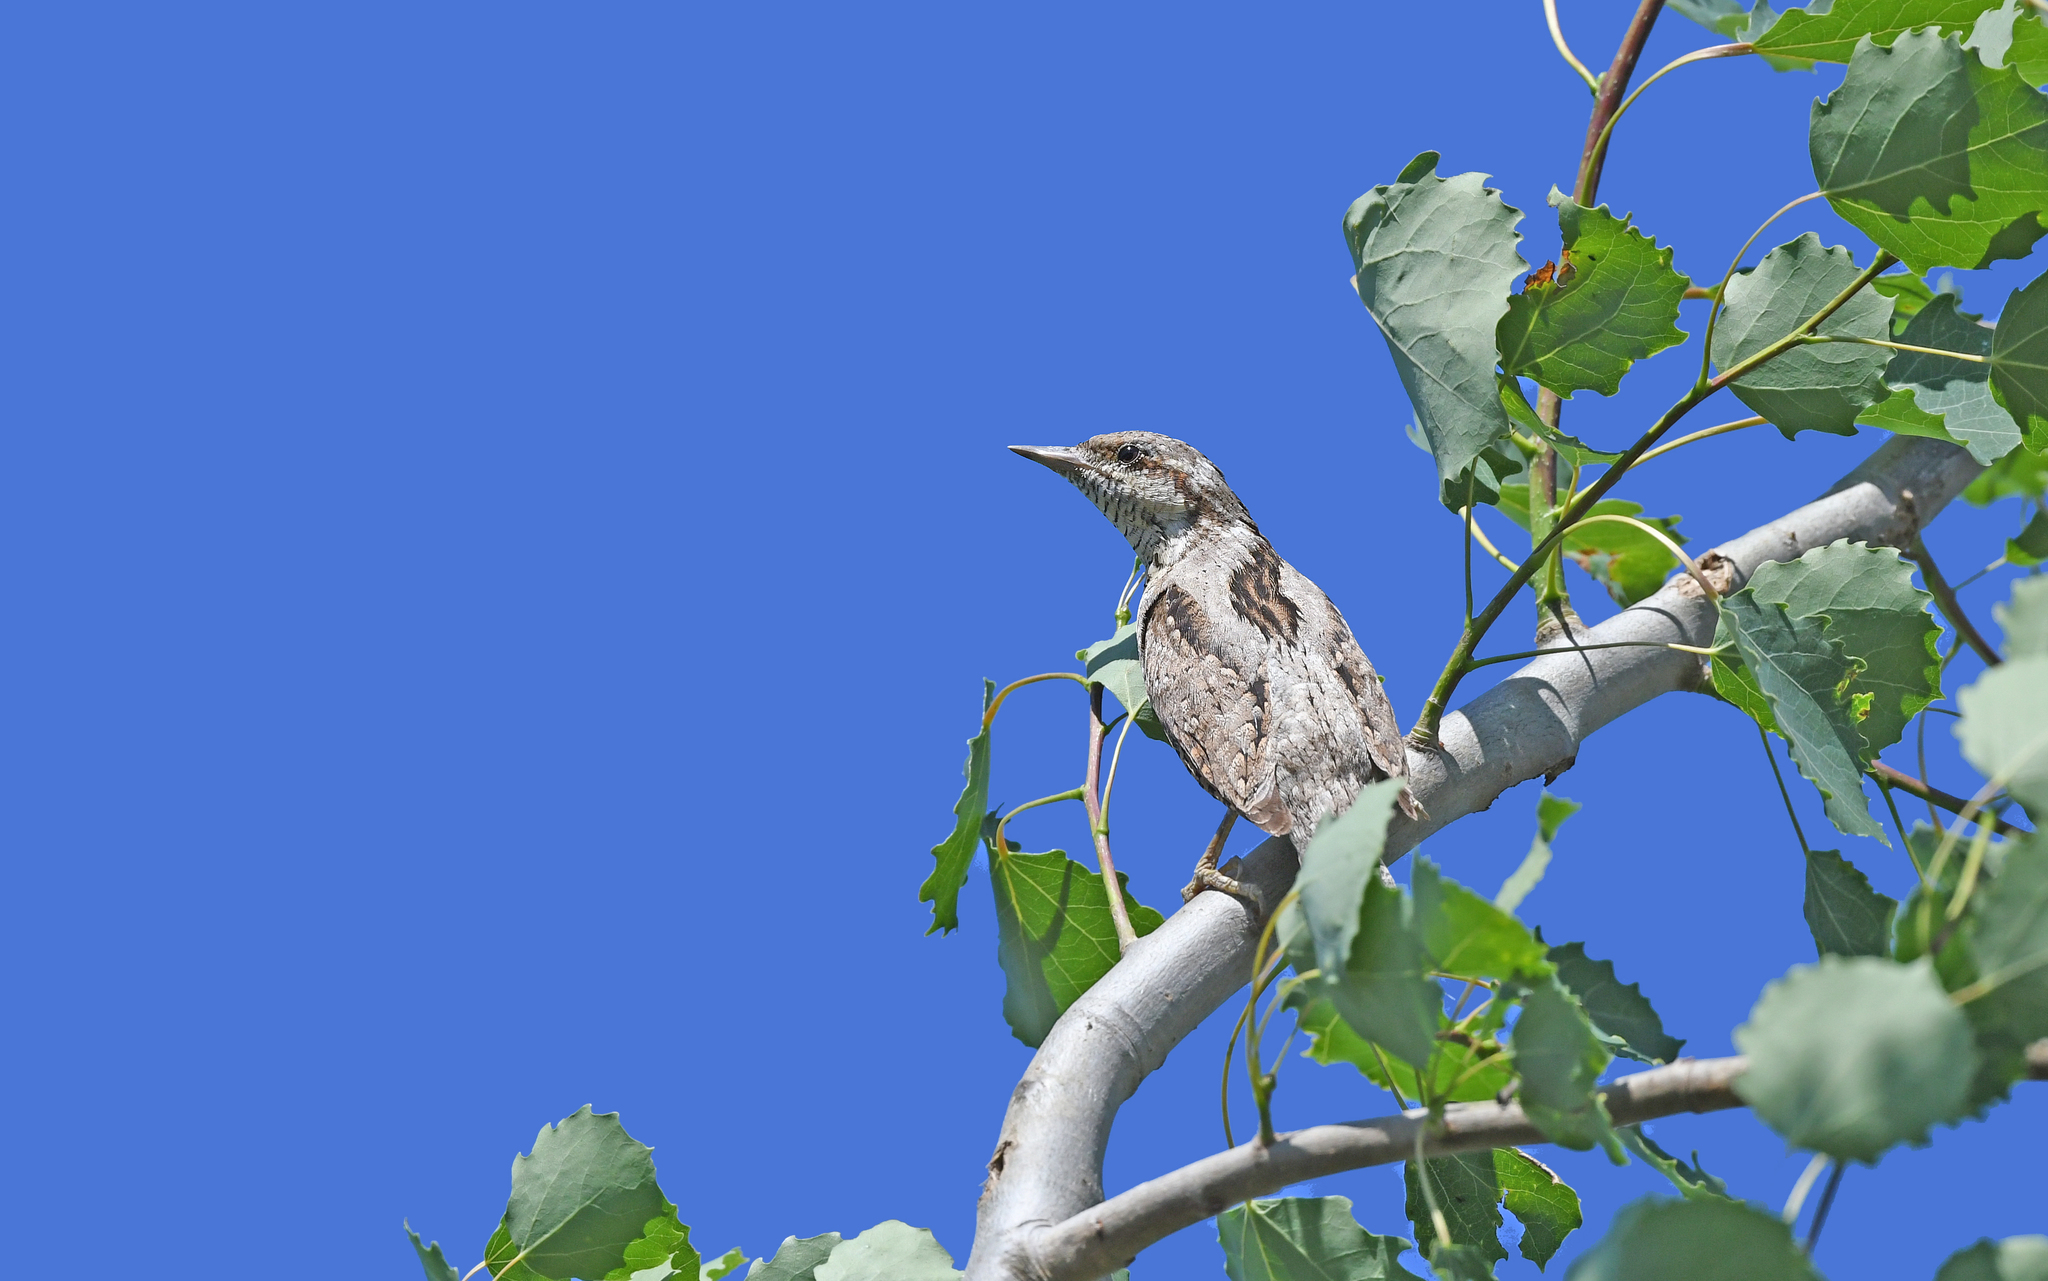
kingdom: Animalia
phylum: Chordata
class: Aves
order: Piciformes
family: Picidae
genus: Jynx
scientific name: Jynx torquilla
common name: Eurasian wryneck
